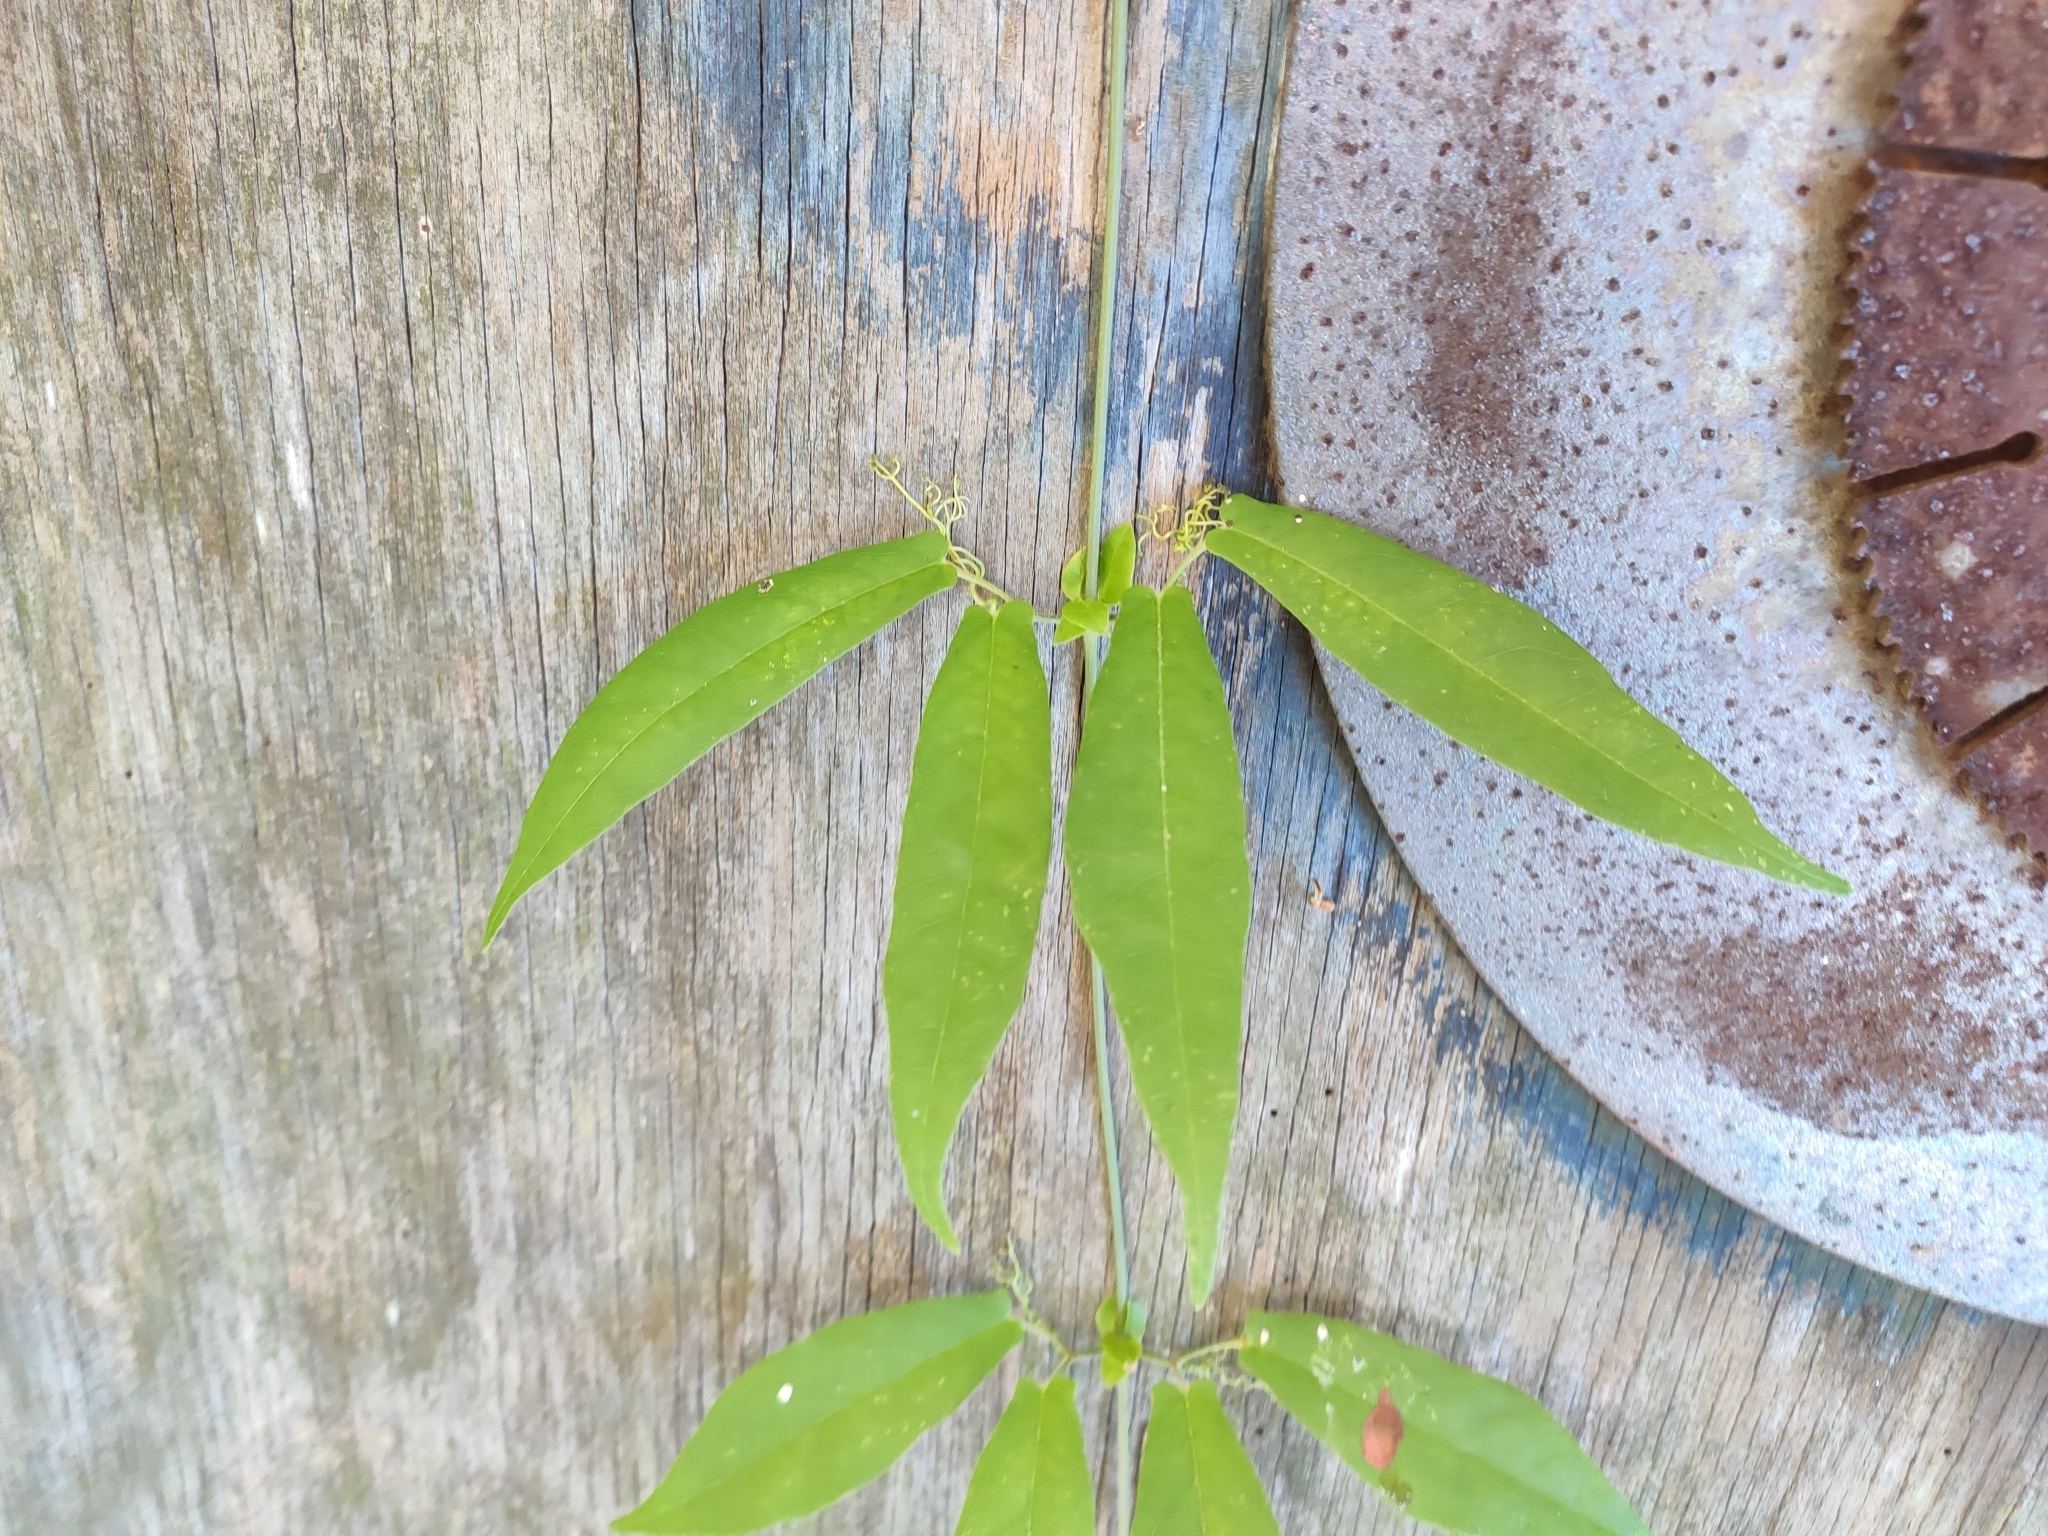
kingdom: Plantae
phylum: Tracheophyta
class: Magnoliopsida
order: Lamiales
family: Bignoniaceae
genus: Bignonia
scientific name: Bignonia capreolata
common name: Crossvine
